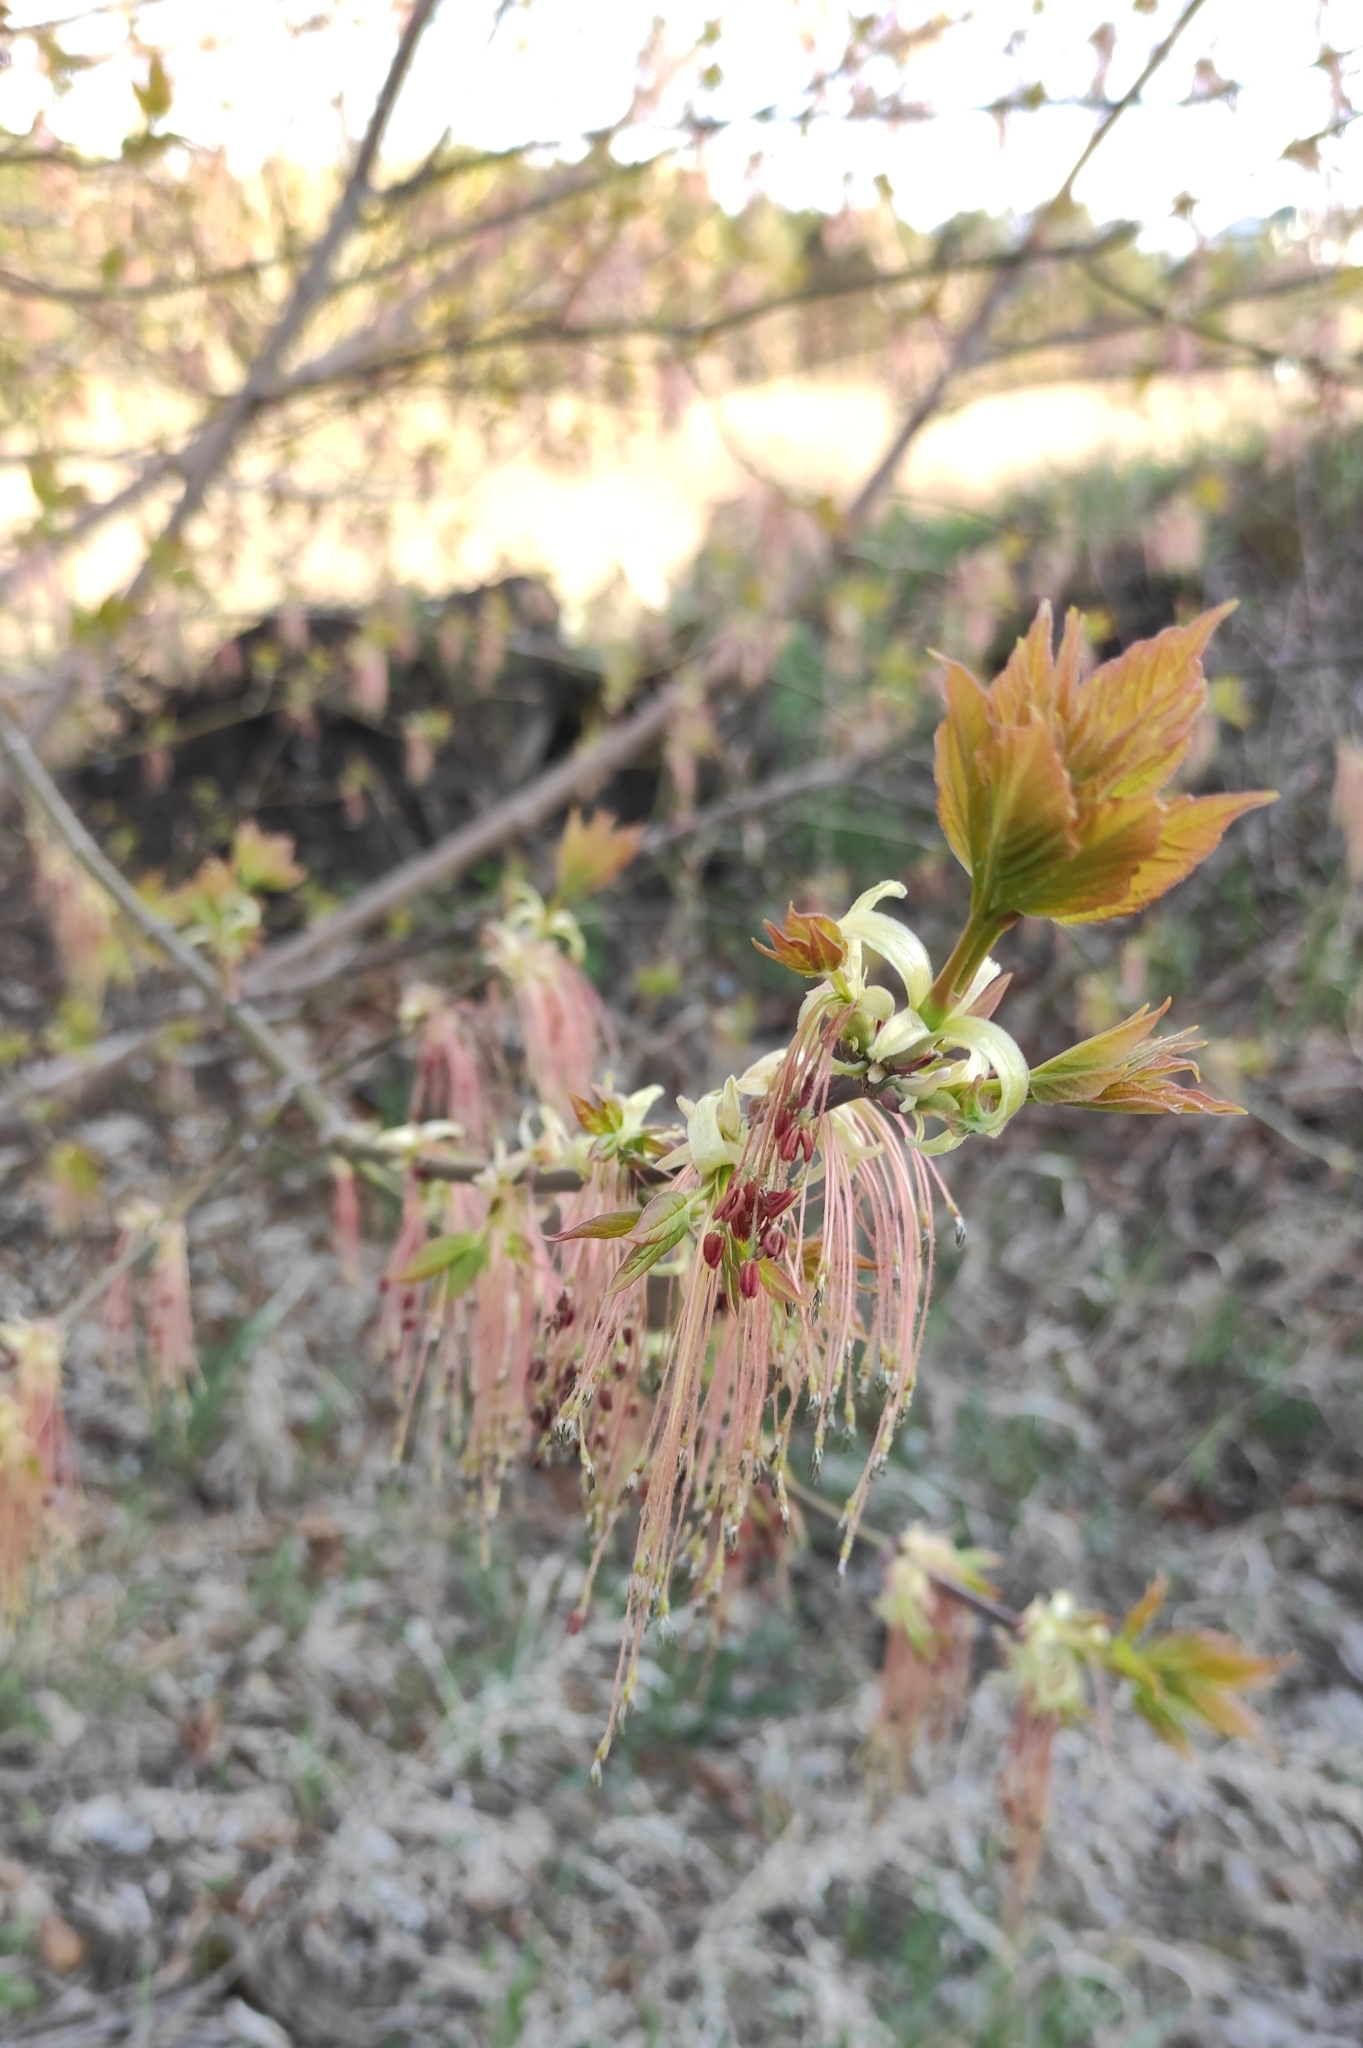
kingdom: Plantae
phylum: Tracheophyta
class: Magnoliopsida
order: Sapindales
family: Sapindaceae
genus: Acer
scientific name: Acer negundo
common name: Ashleaf maple
